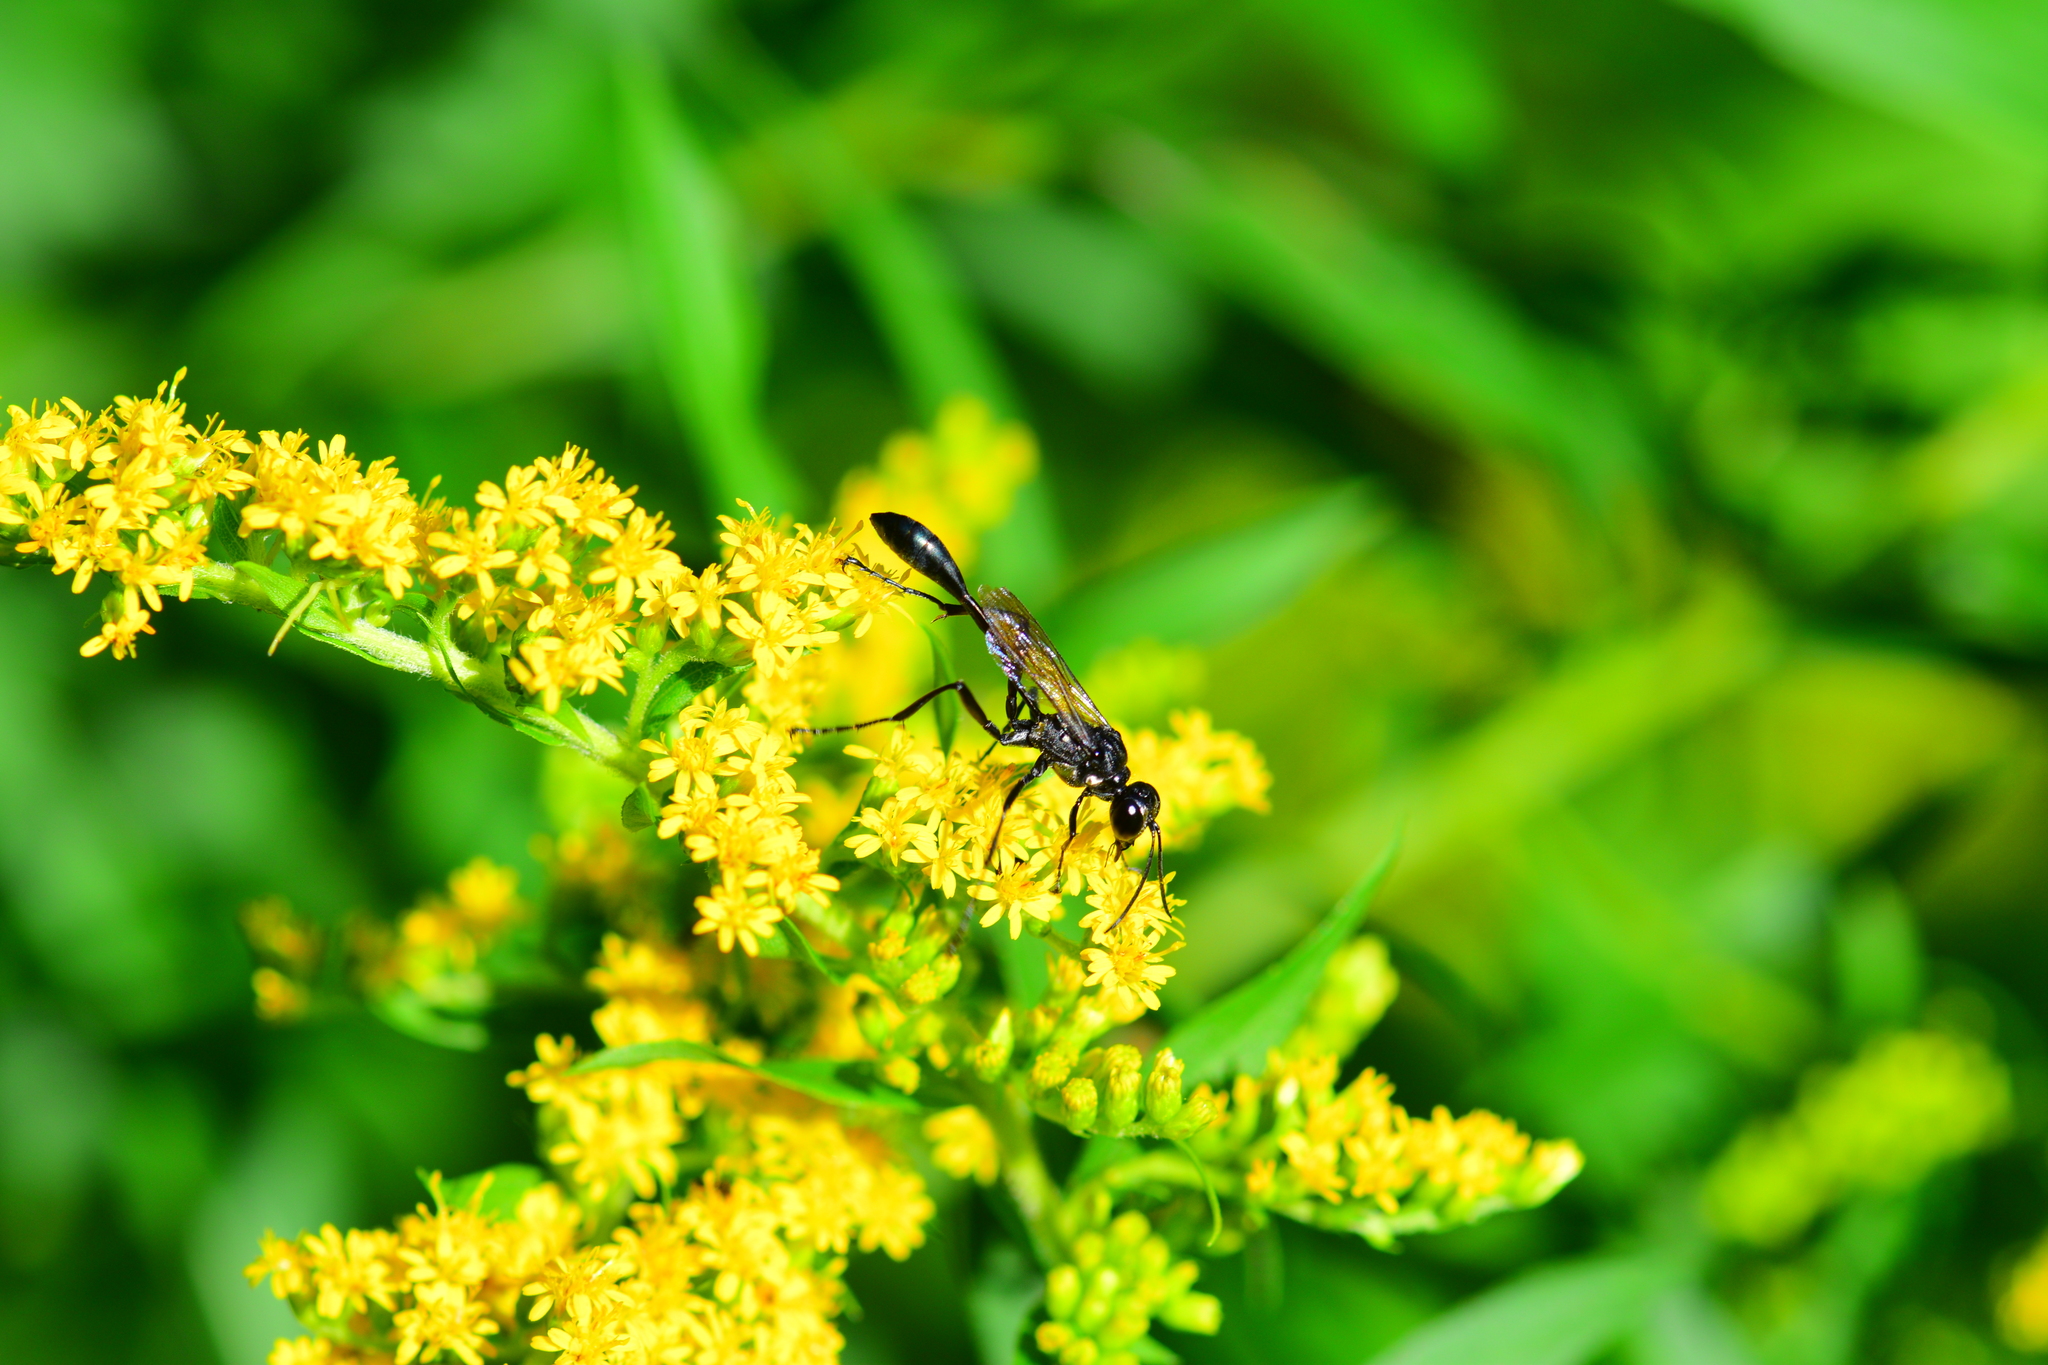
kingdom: Animalia
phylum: Arthropoda
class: Insecta
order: Hymenoptera
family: Sphecidae
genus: Eremnophila
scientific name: Eremnophila aureonotata
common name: Gold-marked thread-waisted wasp
